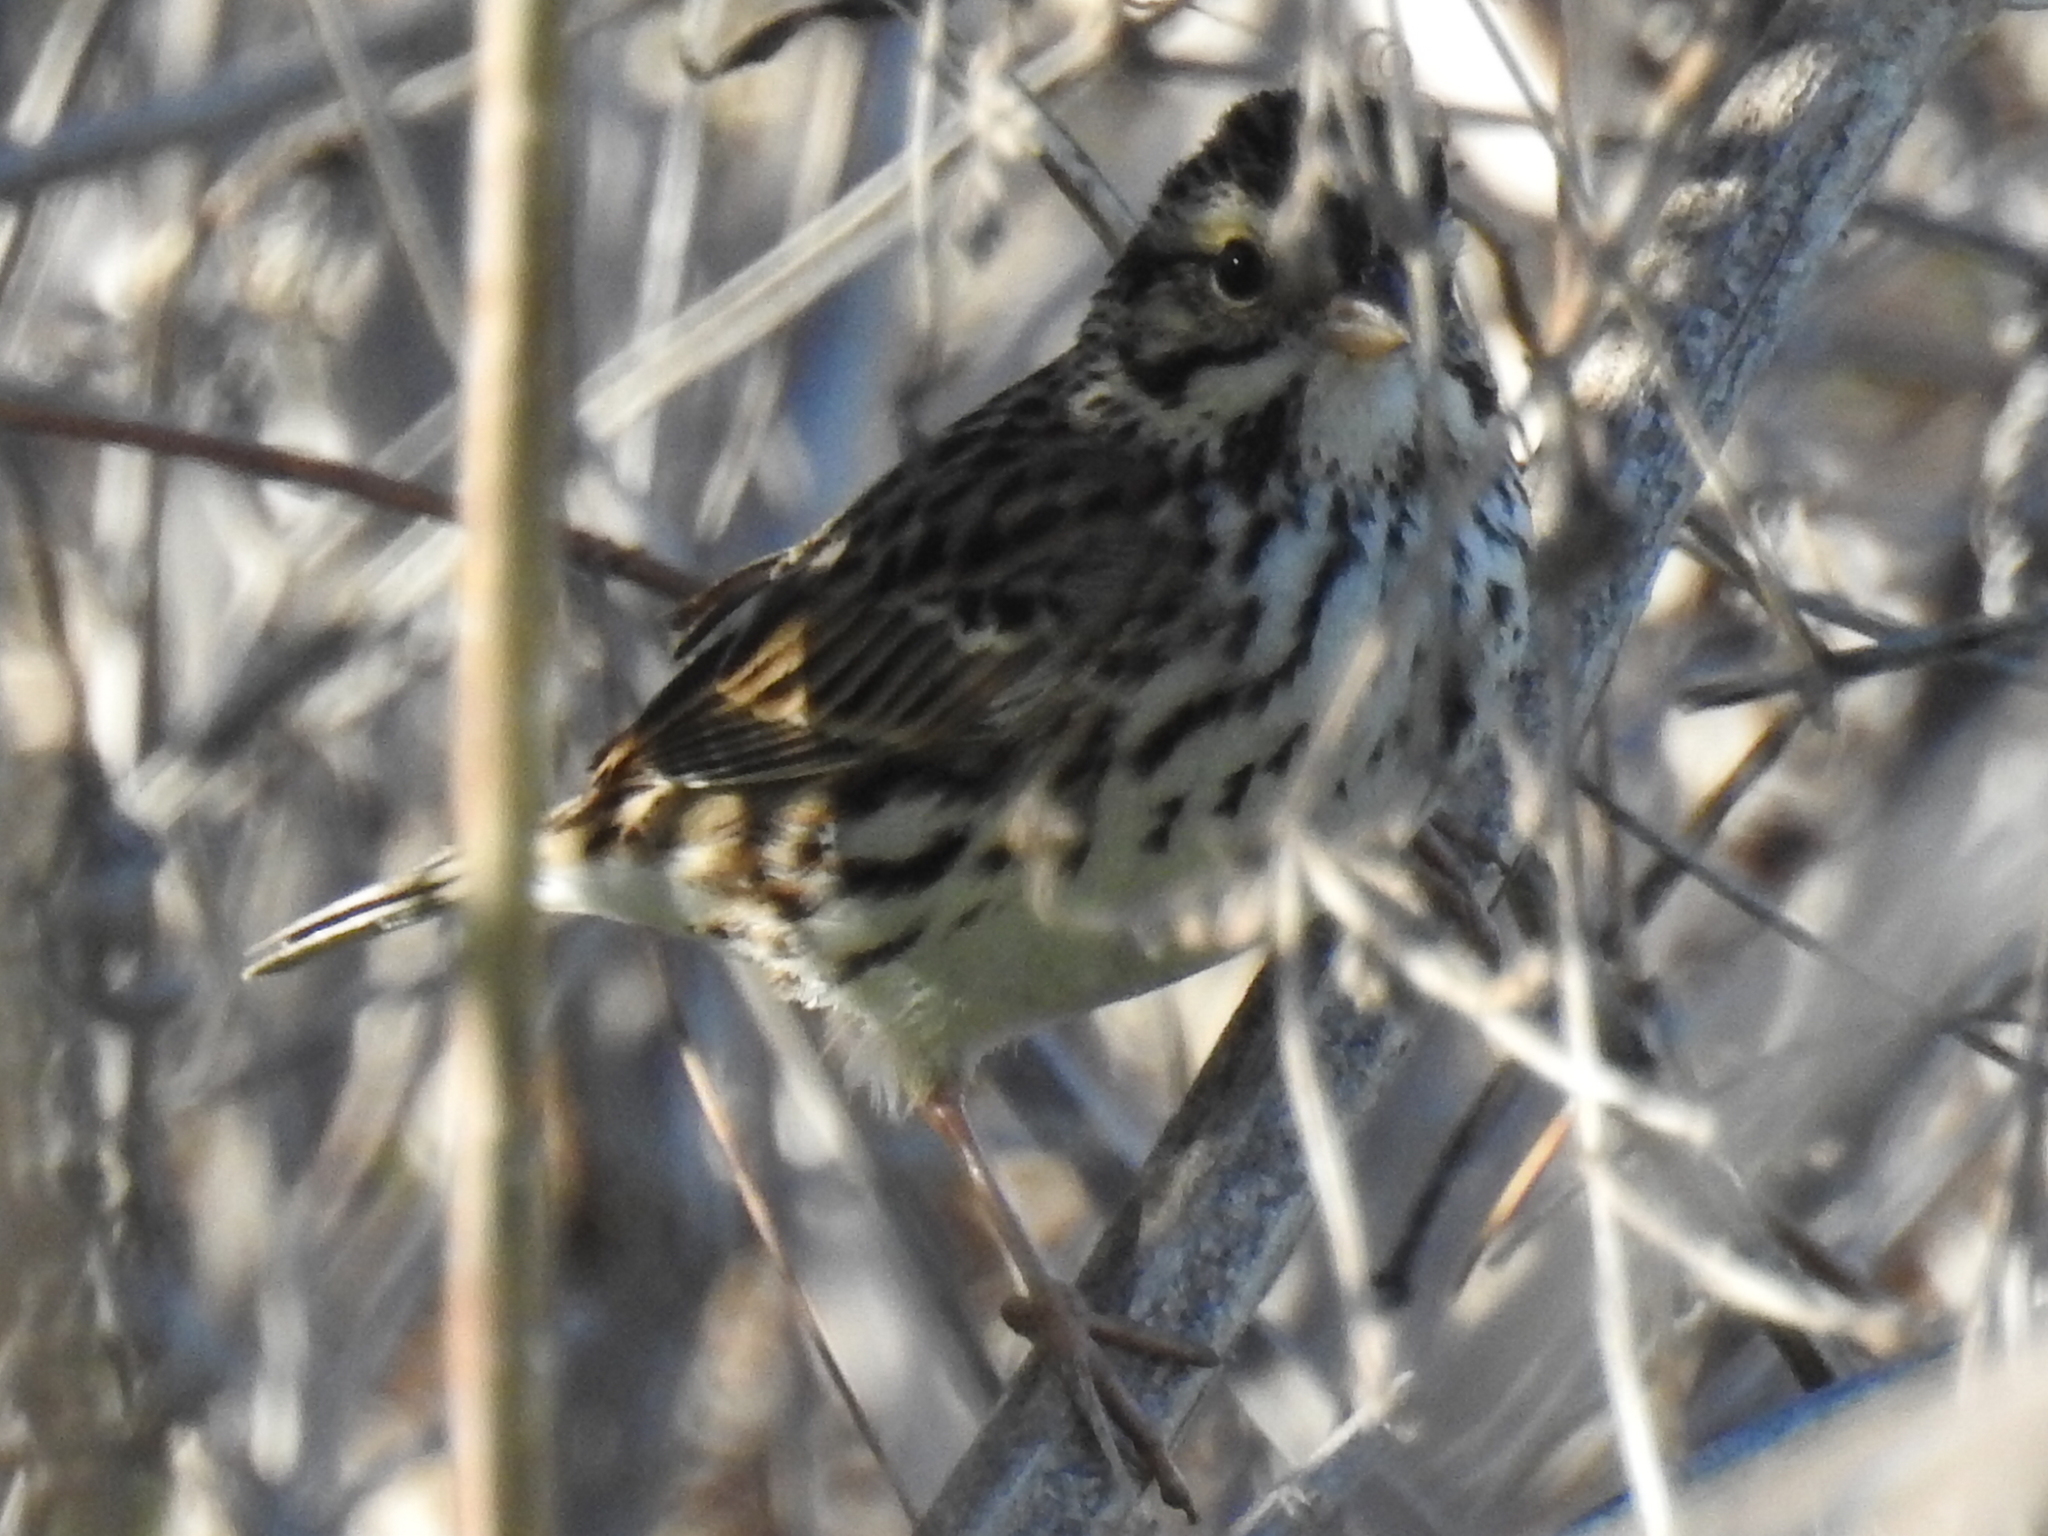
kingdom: Animalia
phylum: Chordata
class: Aves
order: Passeriformes
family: Passerellidae
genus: Passerculus
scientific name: Passerculus sandwichensis
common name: Savannah sparrow
